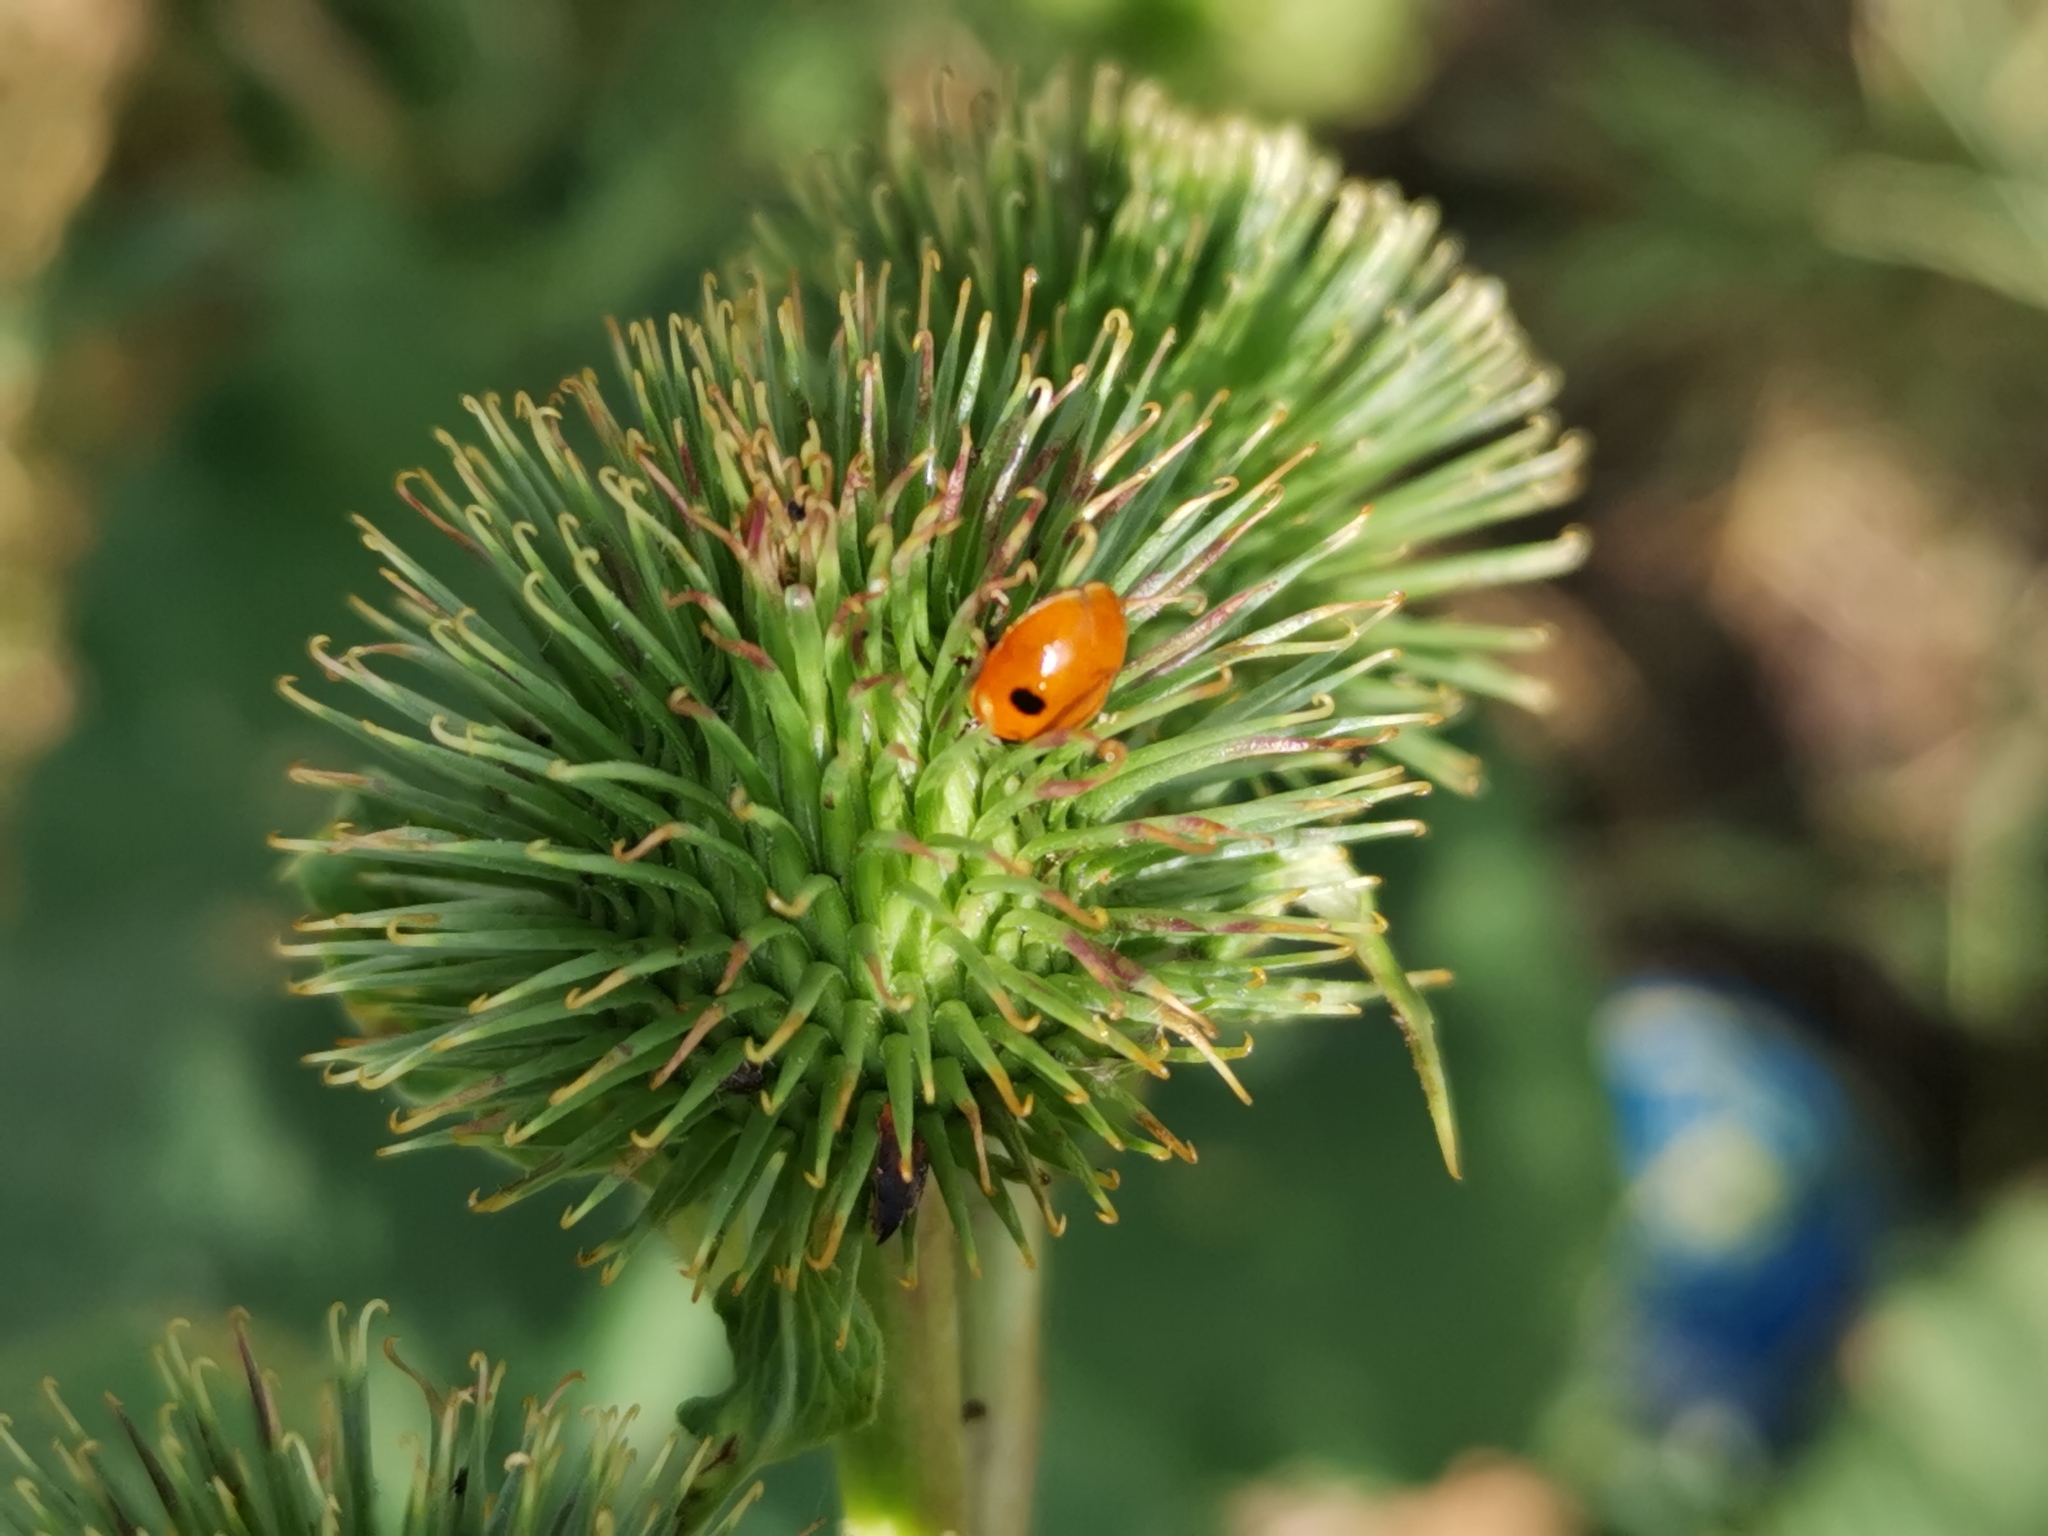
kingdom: Animalia
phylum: Arthropoda
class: Insecta
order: Coleoptera
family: Coccinellidae
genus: Adalia
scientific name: Adalia bipunctata
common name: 2-spot ladybird
